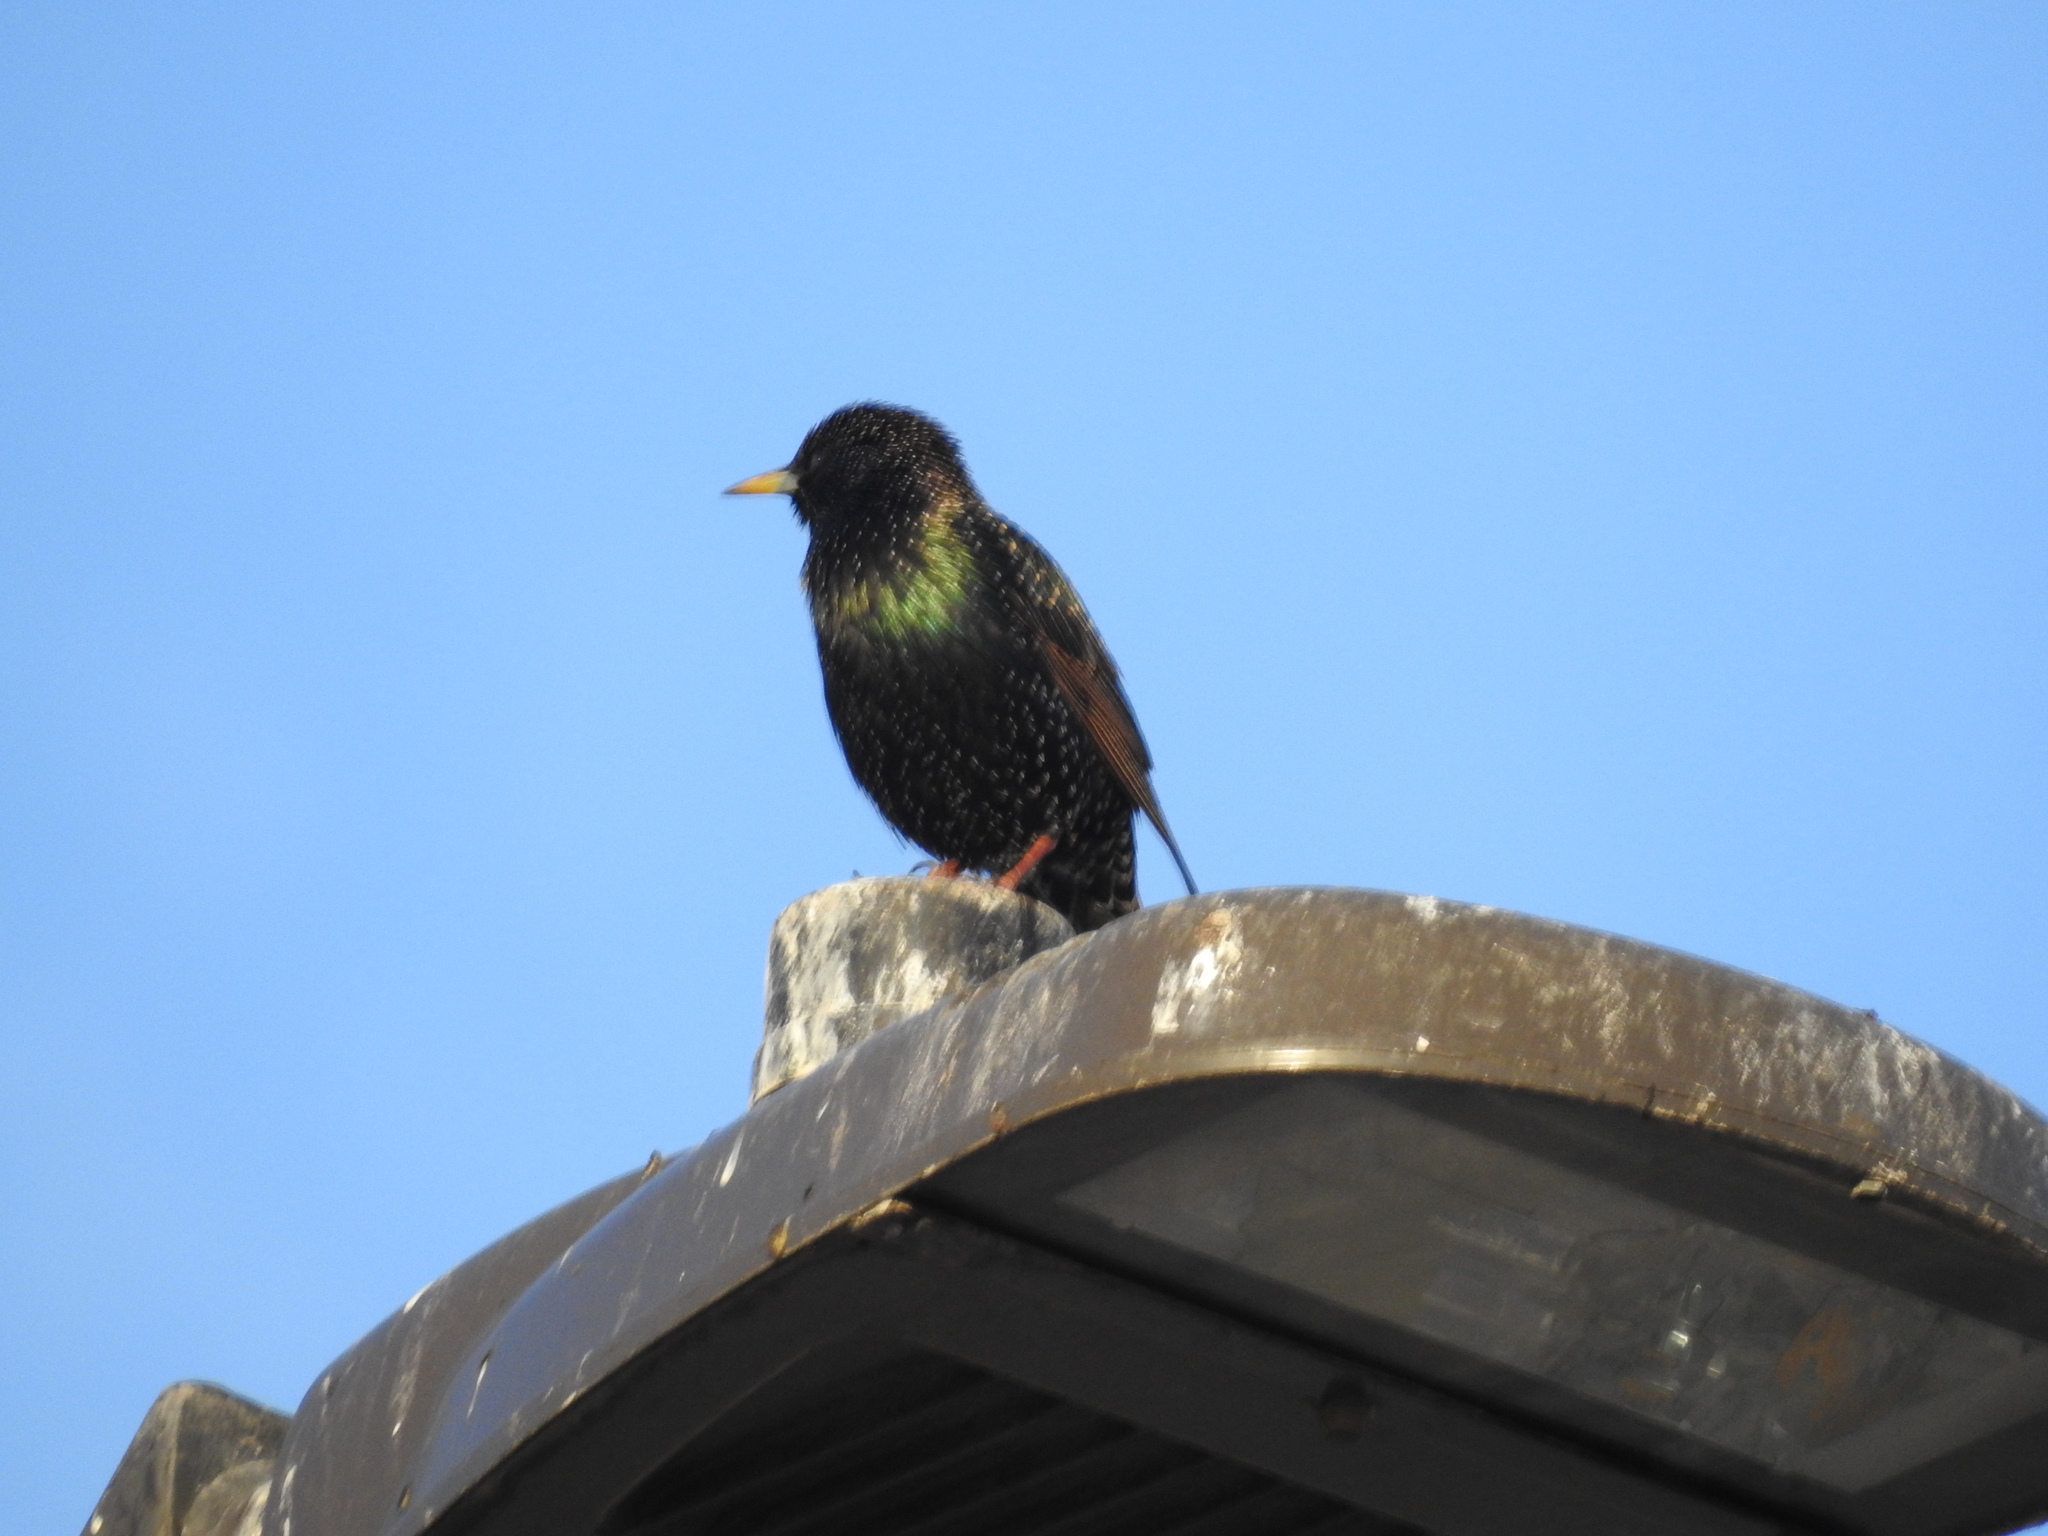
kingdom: Animalia
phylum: Chordata
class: Aves
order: Passeriformes
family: Sturnidae
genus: Sturnus
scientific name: Sturnus vulgaris
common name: Common starling
